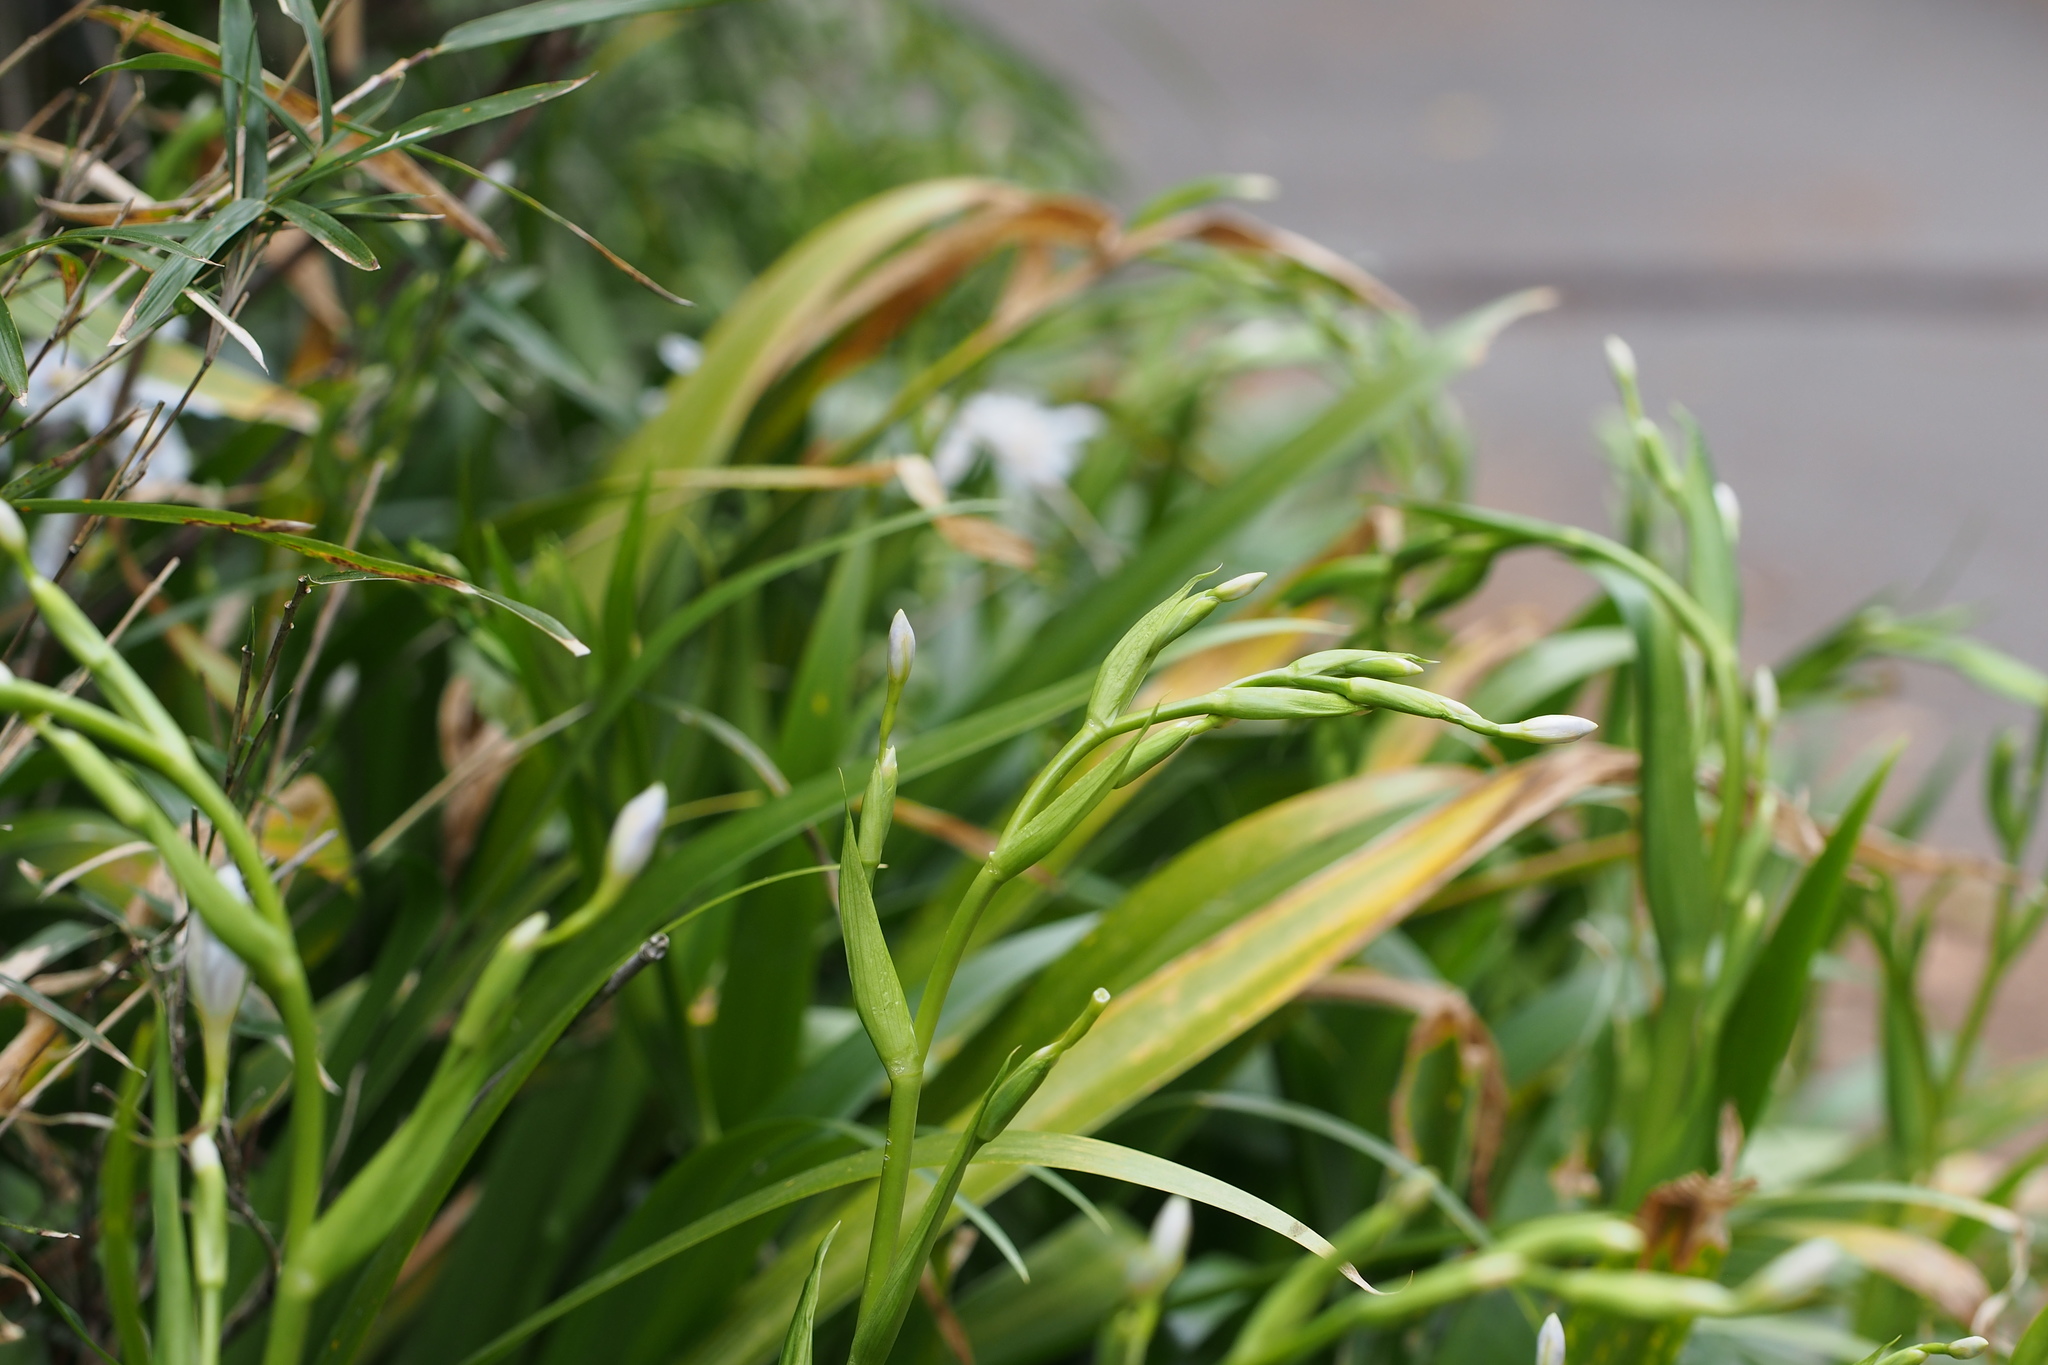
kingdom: Plantae
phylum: Tracheophyta
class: Liliopsida
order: Asparagales
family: Iridaceae
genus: Iris
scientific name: Iris japonica
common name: Butterfly-flower
